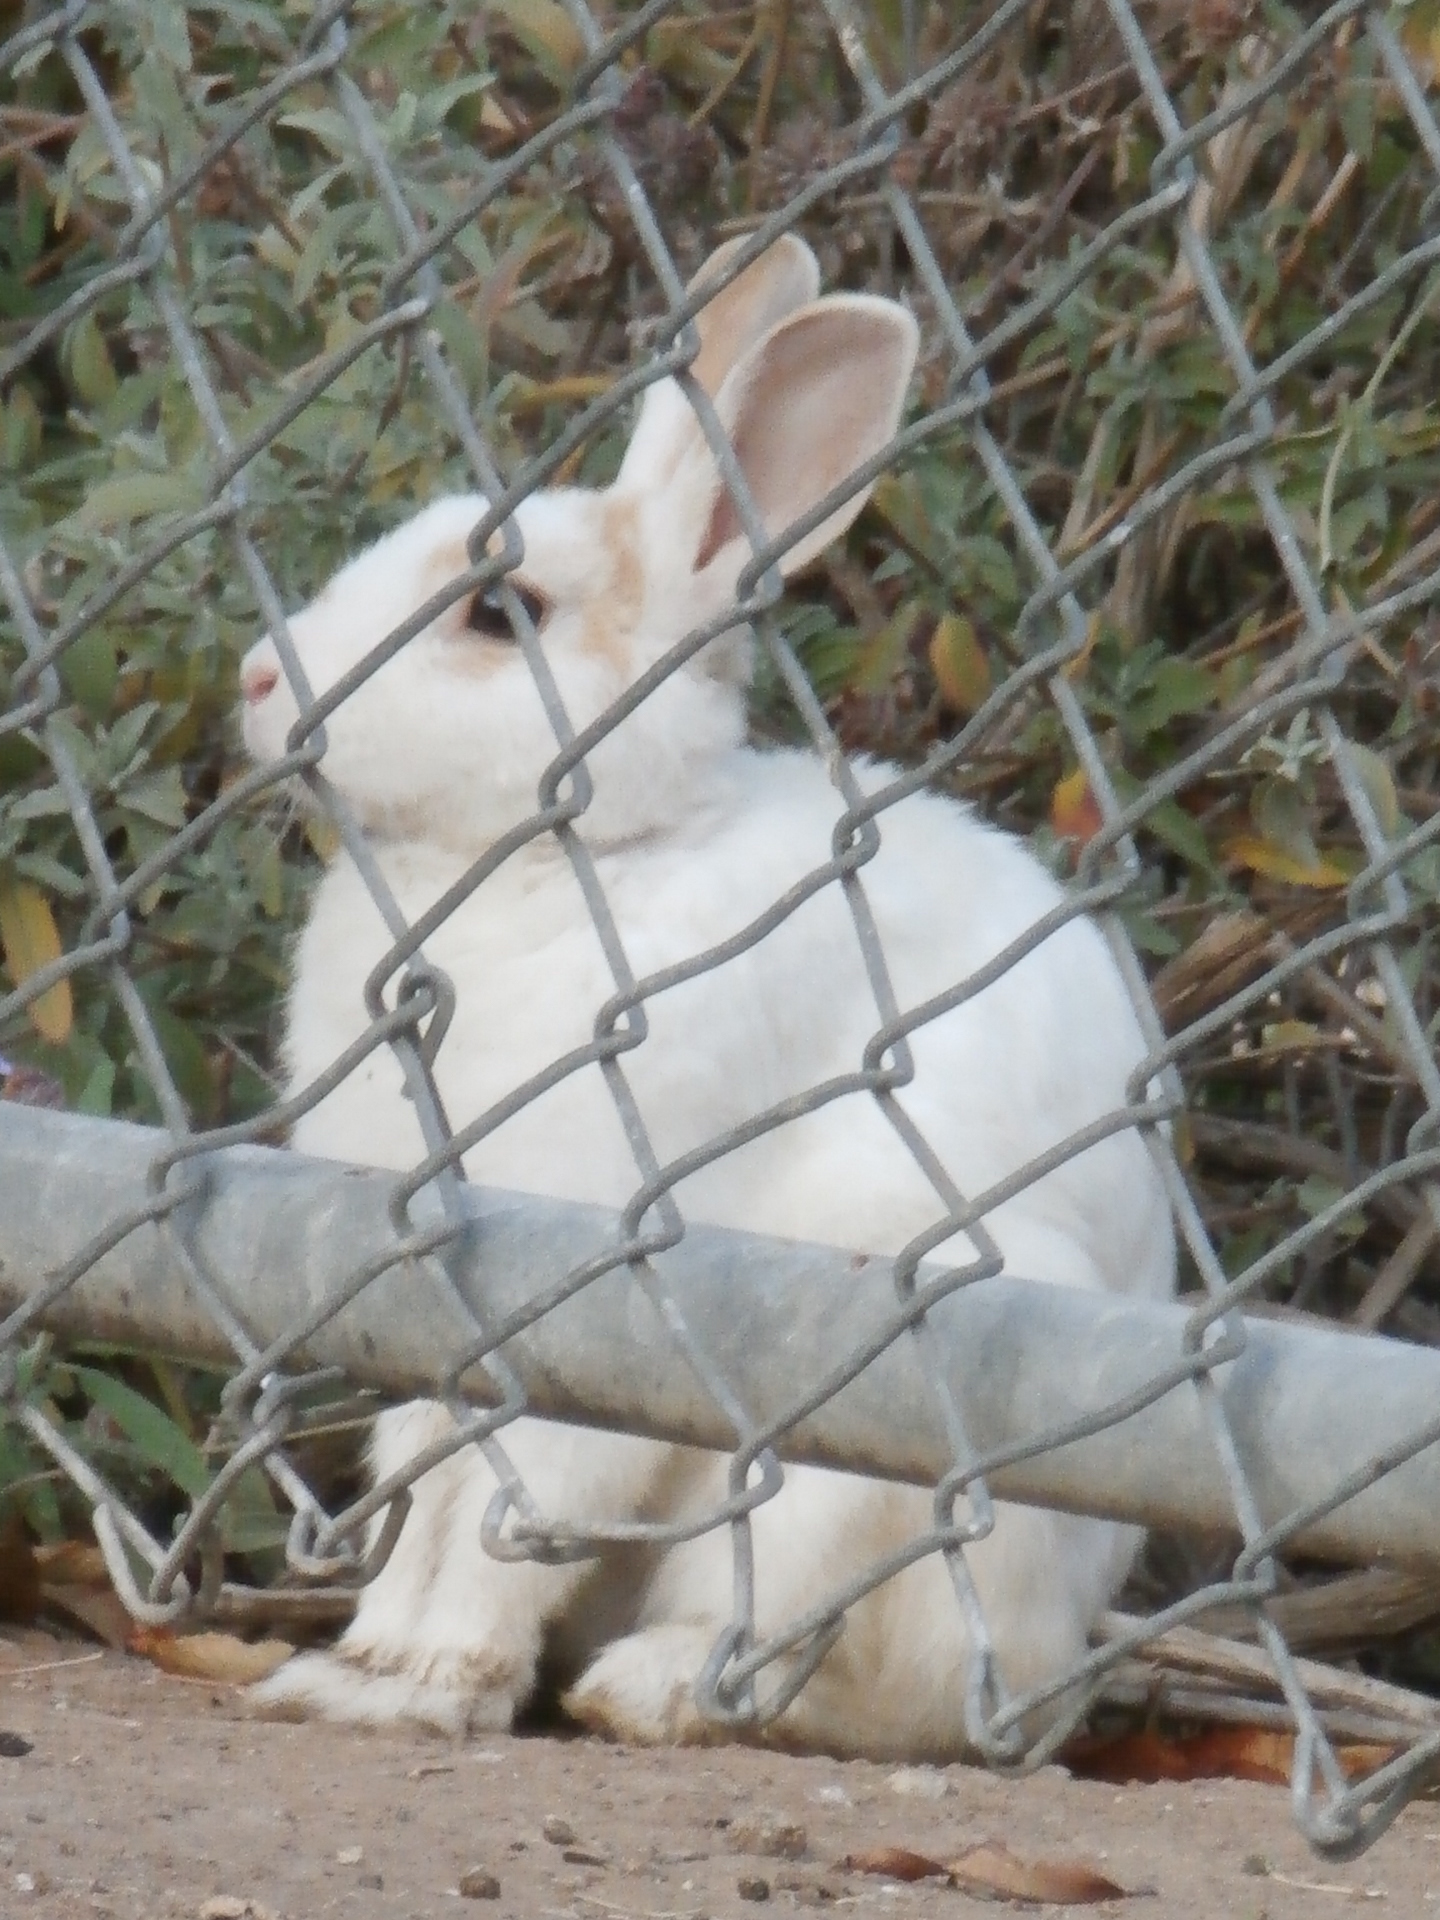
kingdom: Animalia
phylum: Chordata
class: Mammalia
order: Lagomorpha
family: Leporidae
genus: Oryctolagus
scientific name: Oryctolagus cuniculus
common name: European rabbit
